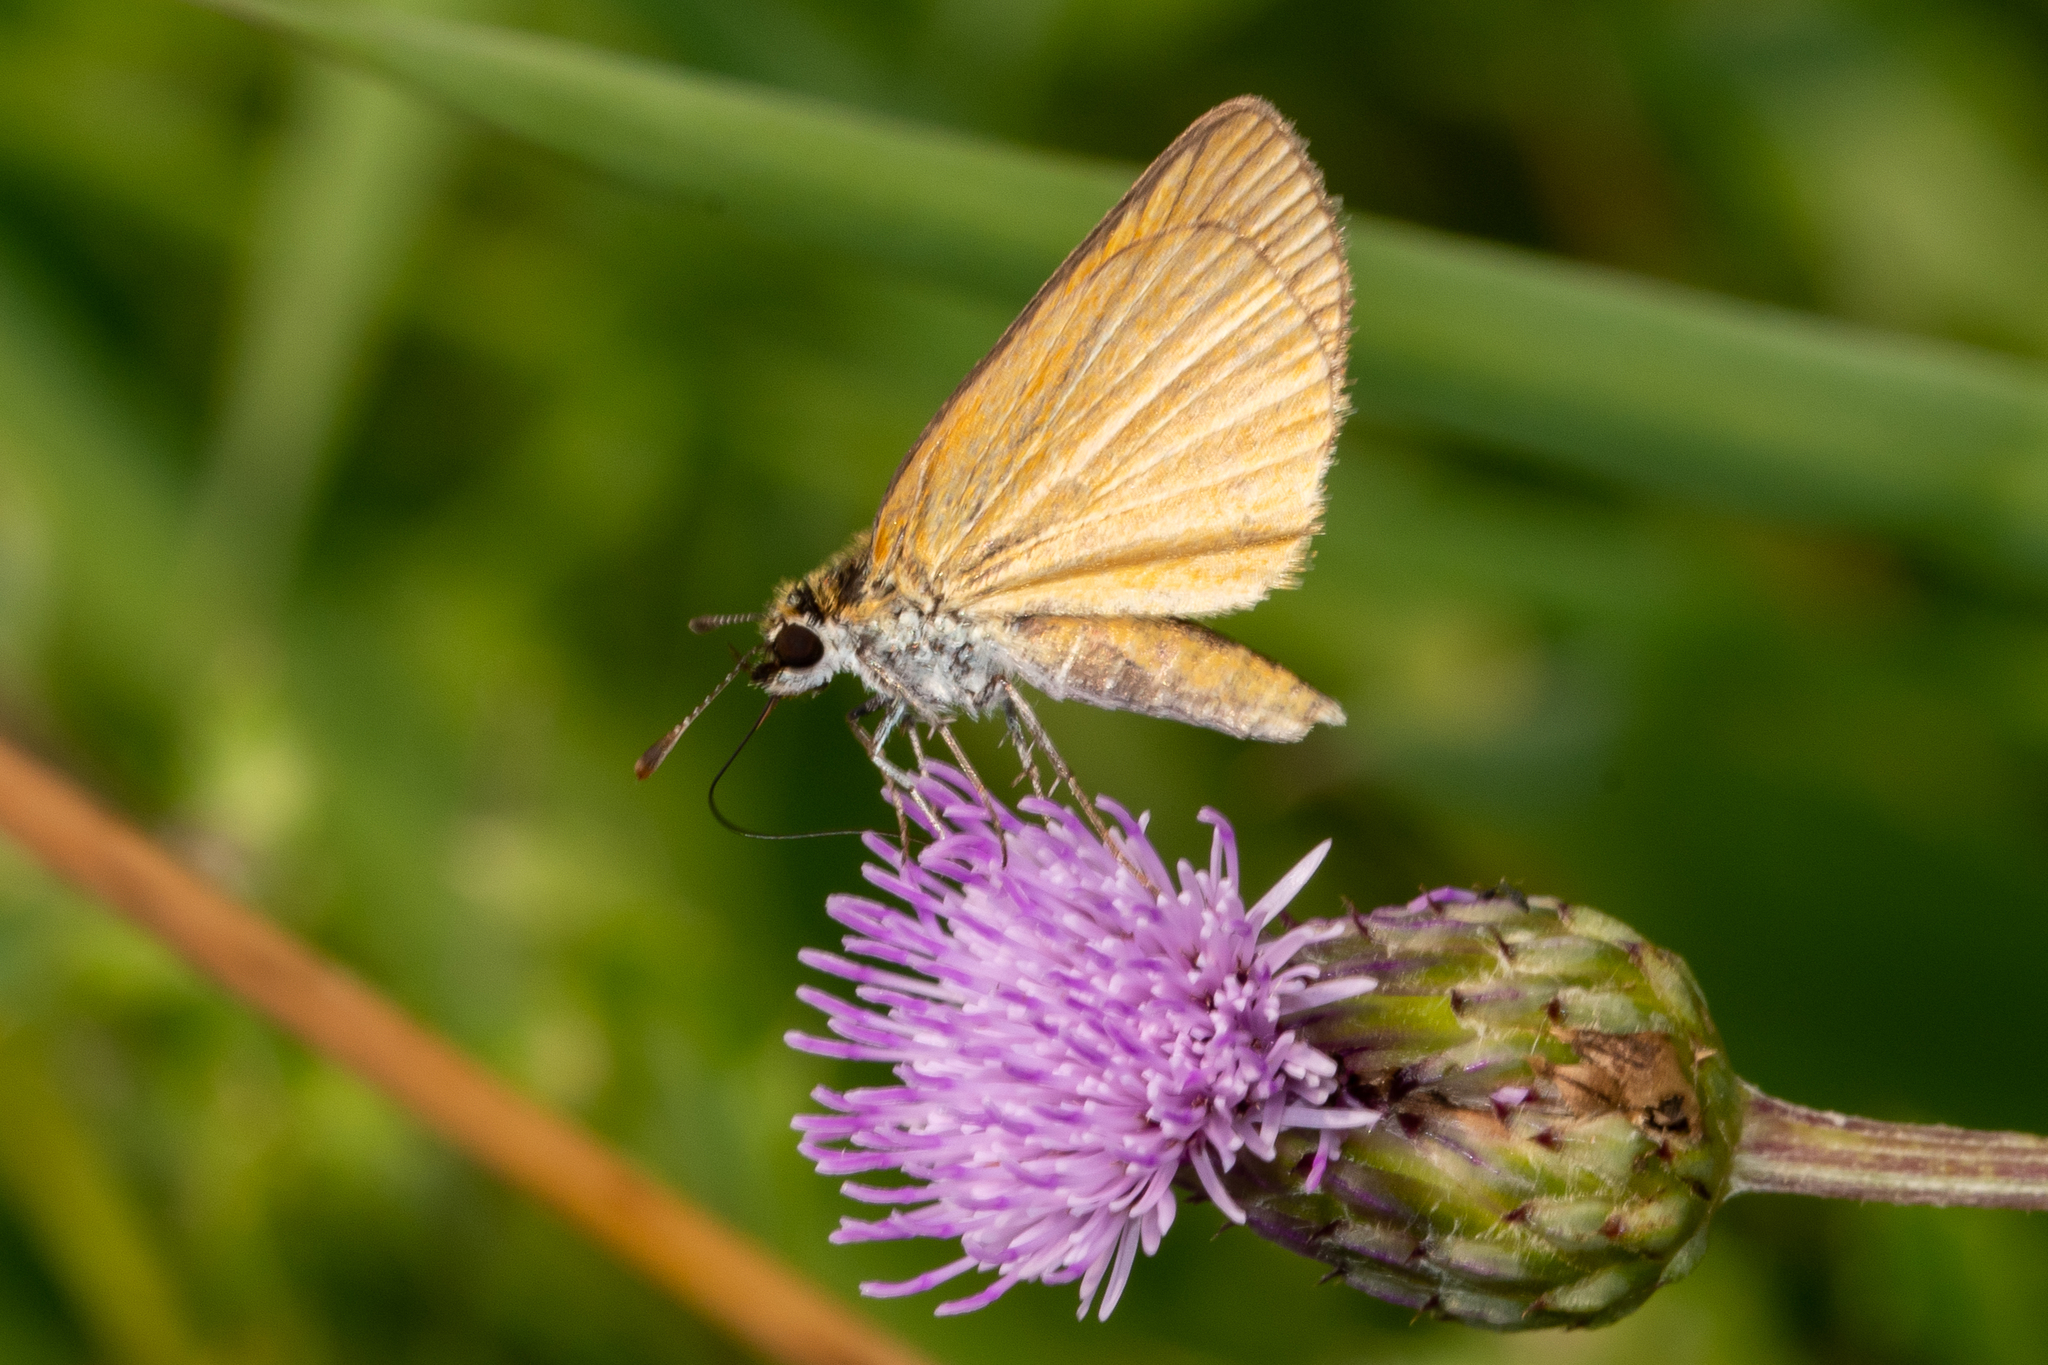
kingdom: Animalia
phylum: Arthropoda
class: Insecta
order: Lepidoptera
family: Hesperiidae
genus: Ancyloxypha
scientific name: Ancyloxypha numitor
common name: Least skipper
